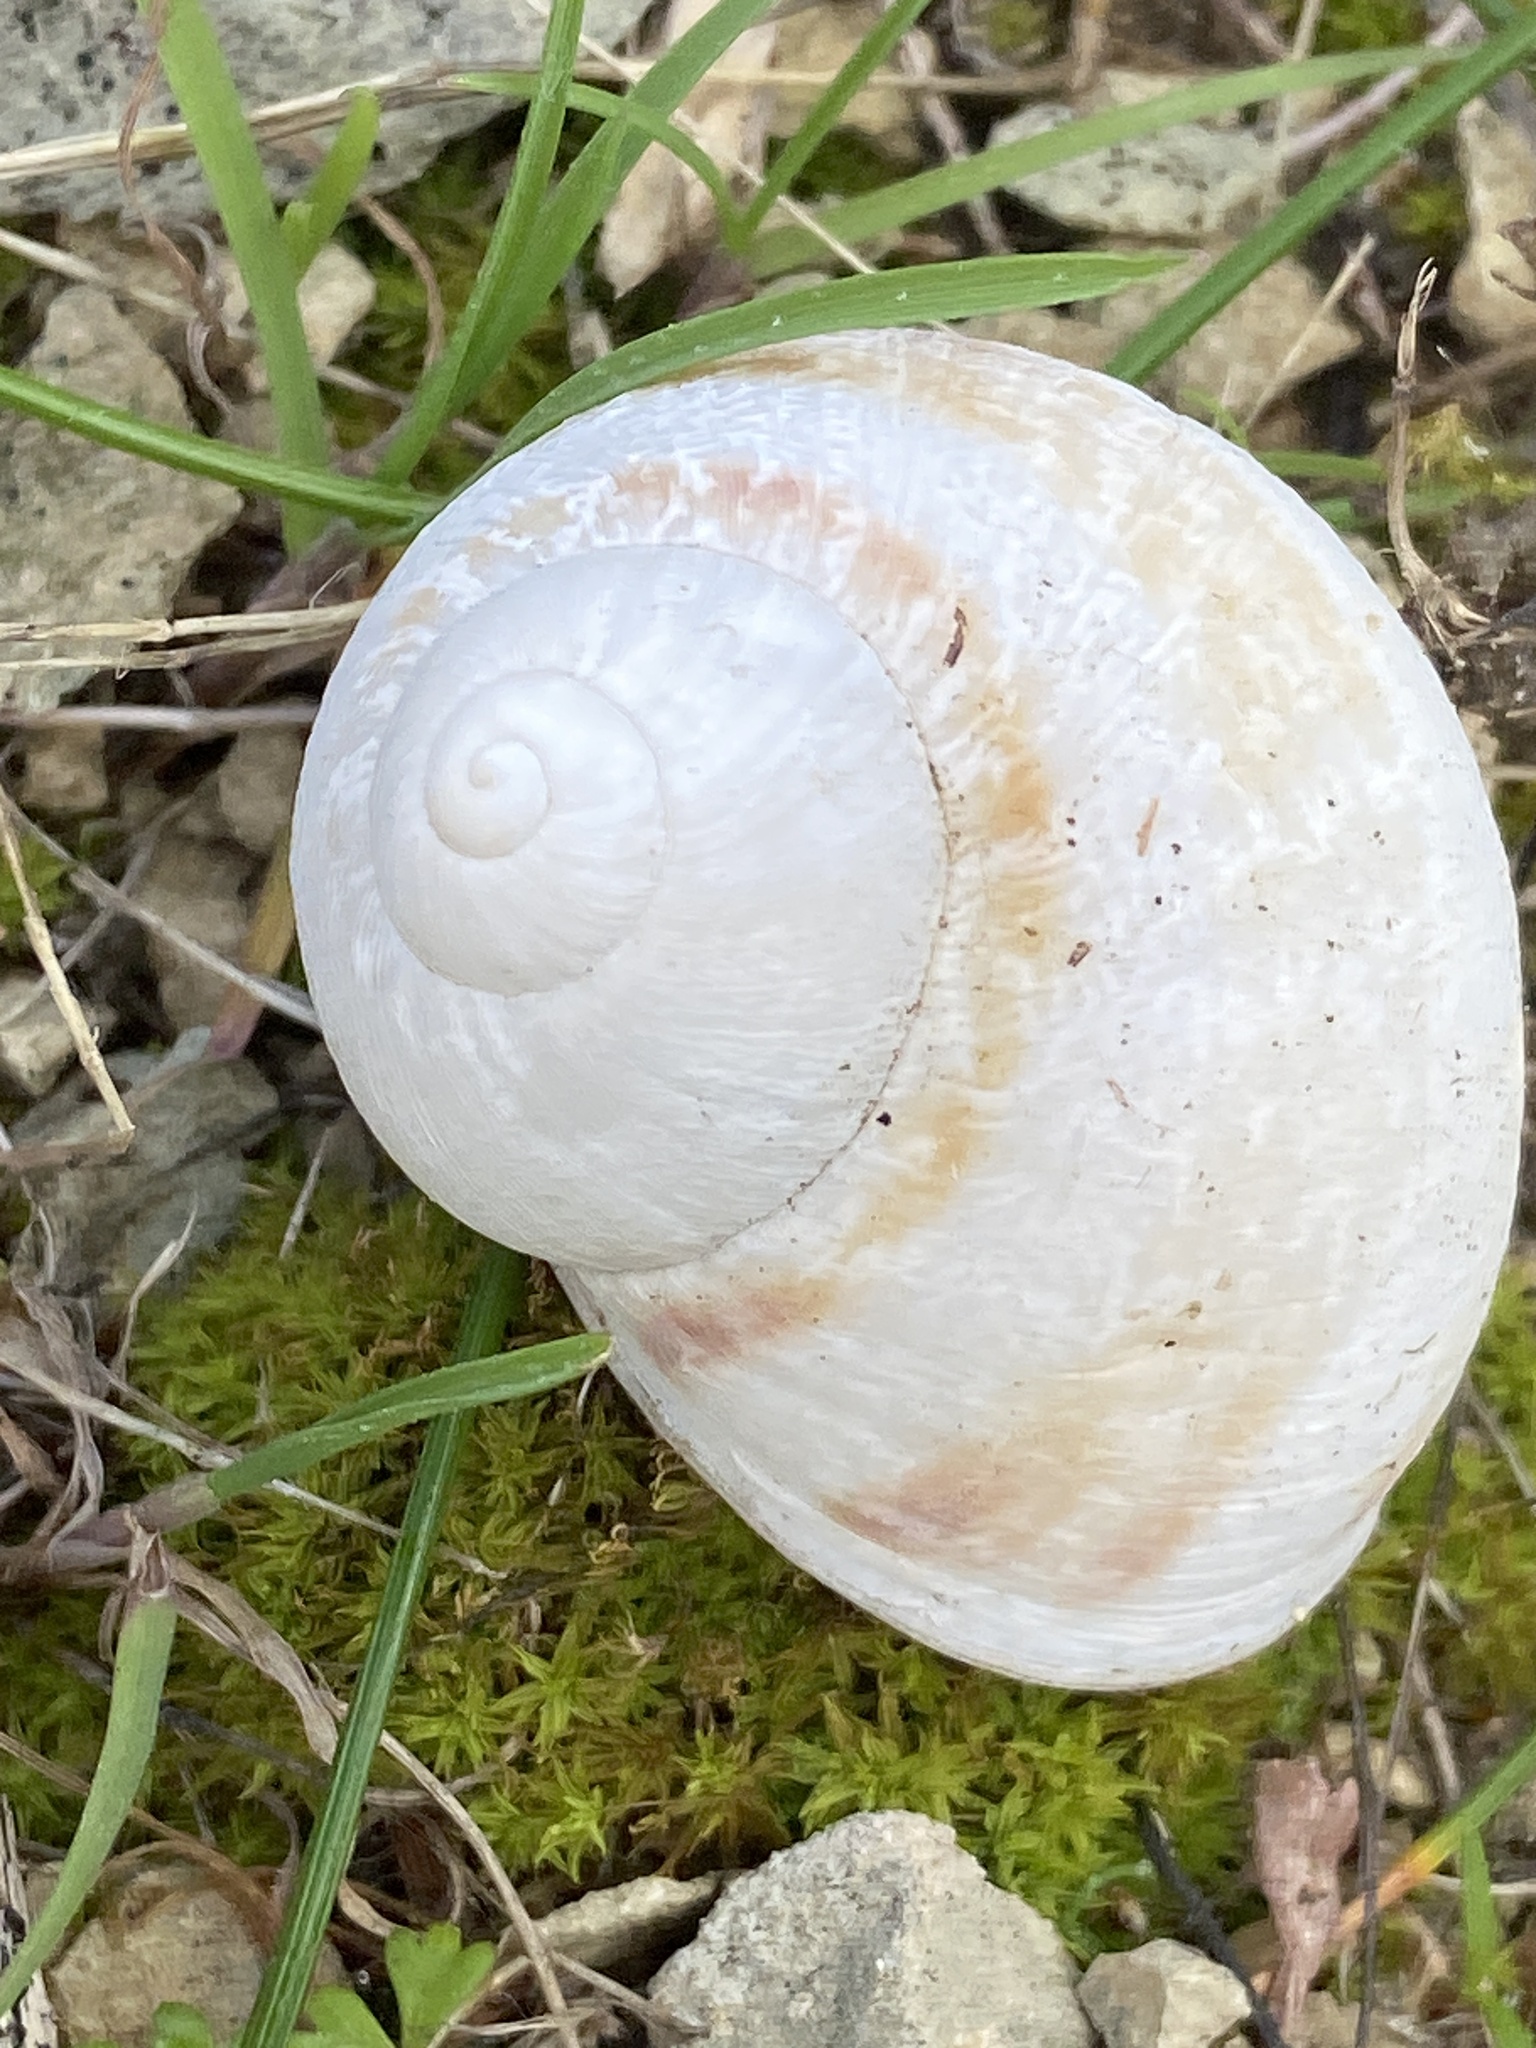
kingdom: Animalia
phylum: Mollusca
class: Gastropoda
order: Stylommatophora
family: Helicidae
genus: Cornu
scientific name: Cornu aspersum
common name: Brown garden snail
